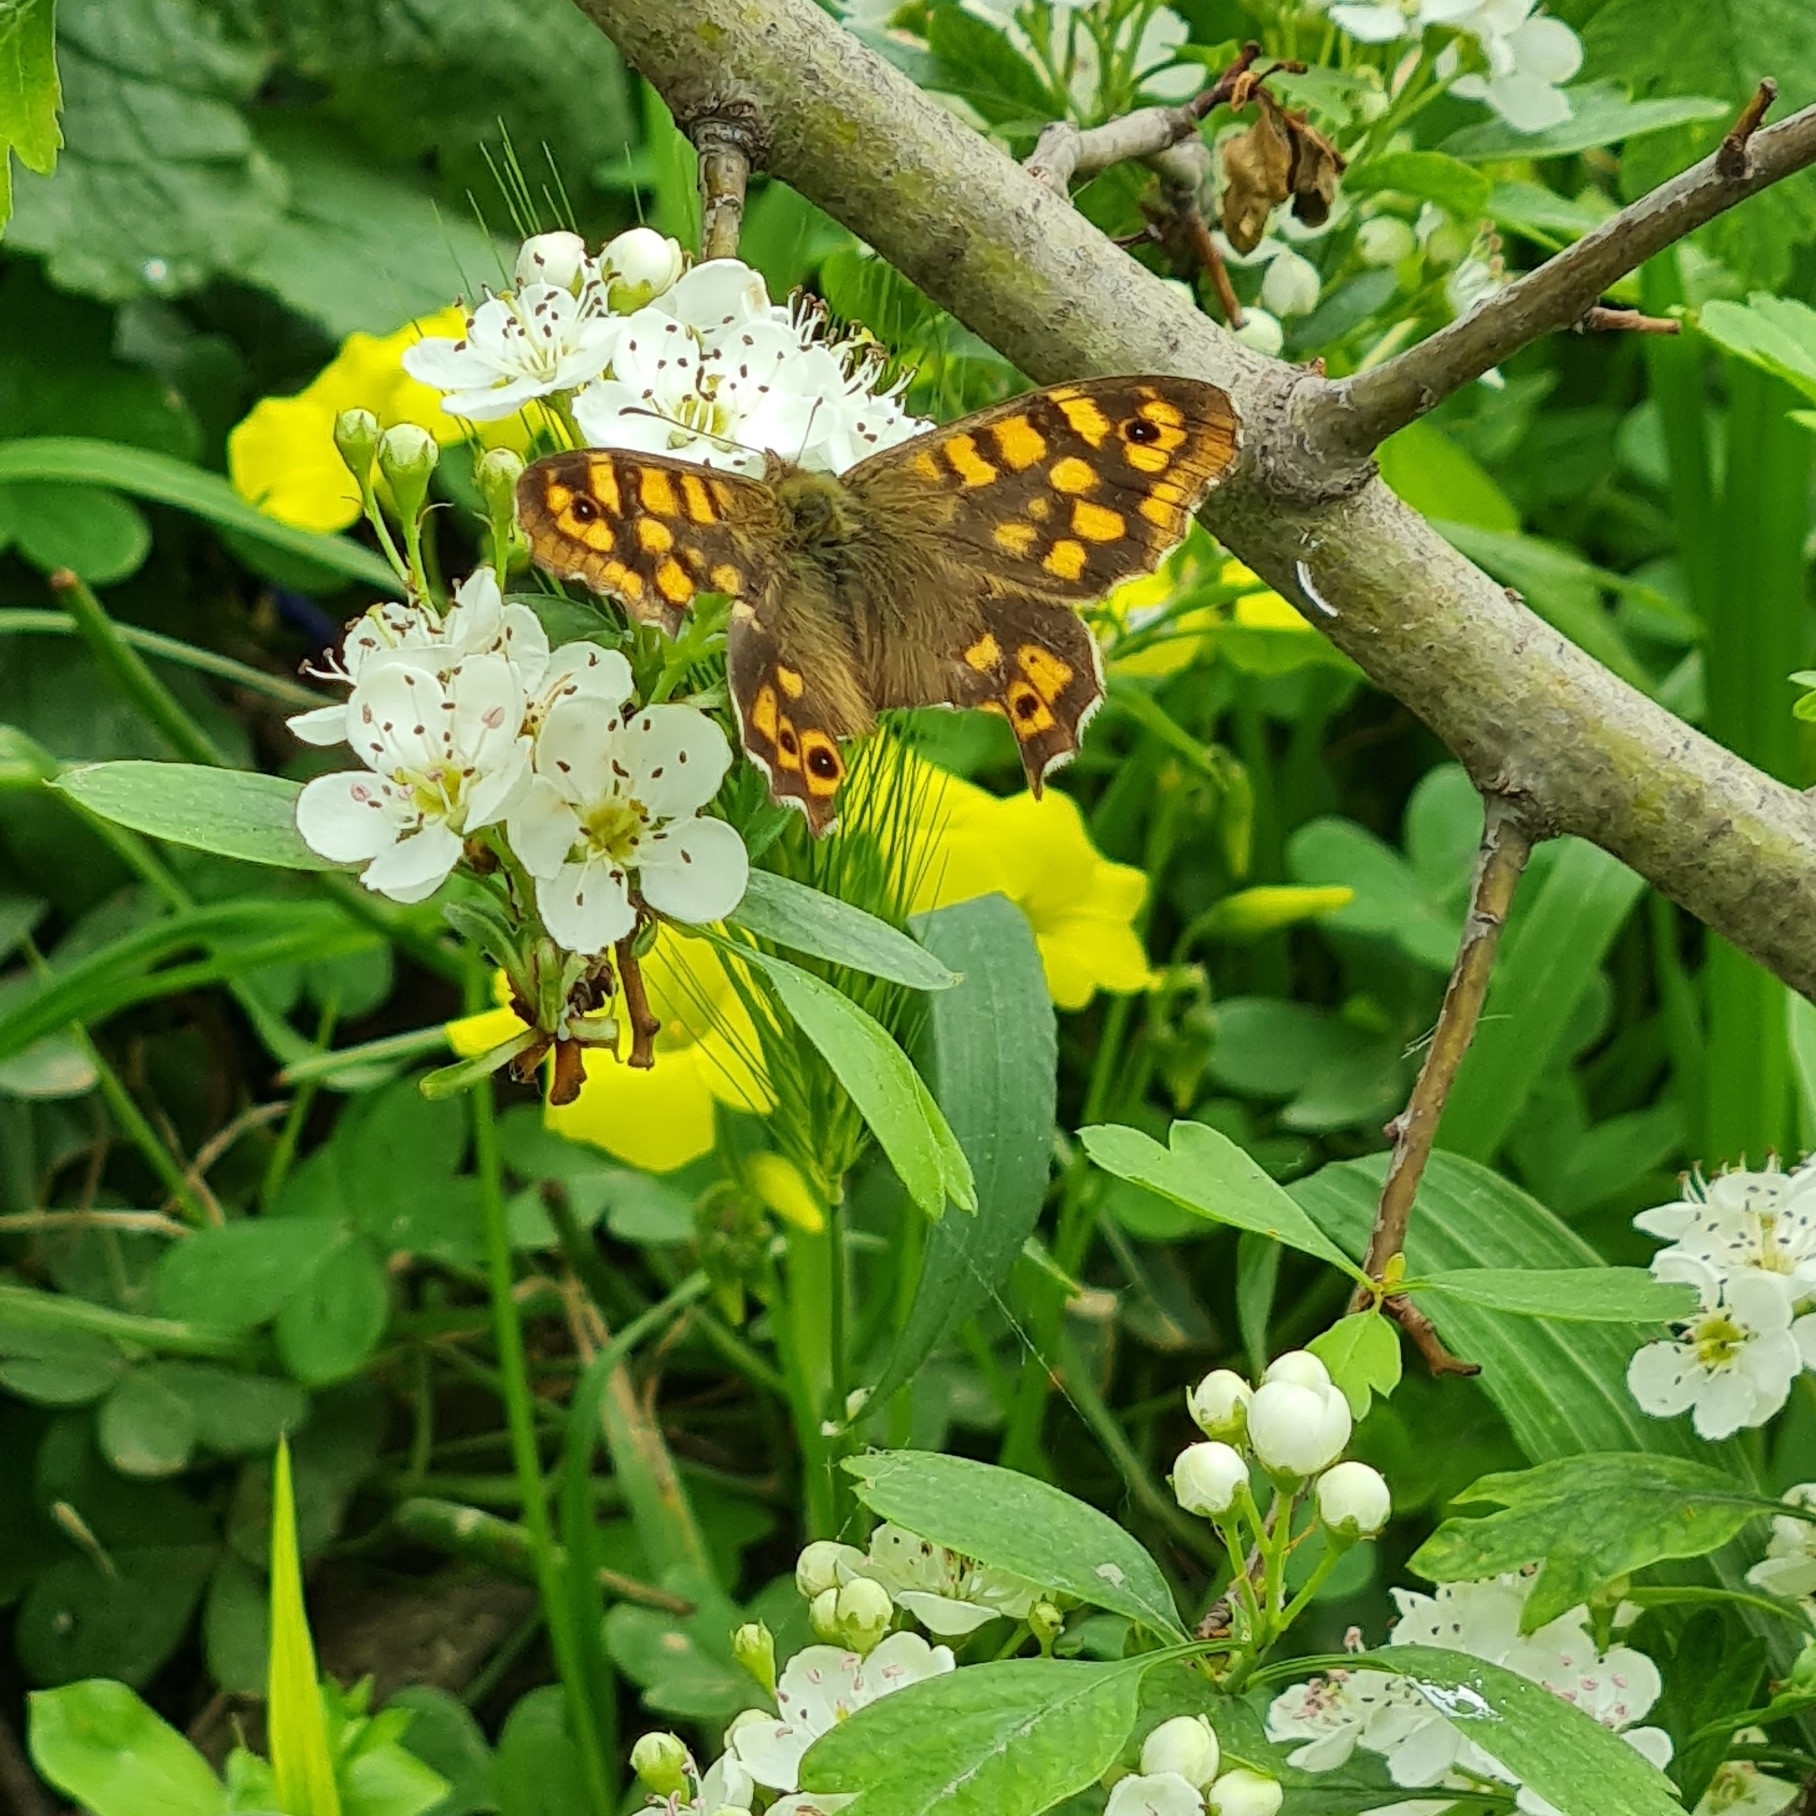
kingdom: Animalia
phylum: Arthropoda
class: Insecta
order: Lepidoptera
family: Nymphalidae
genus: Pararge
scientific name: Pararge aegeria
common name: Speckled wood
